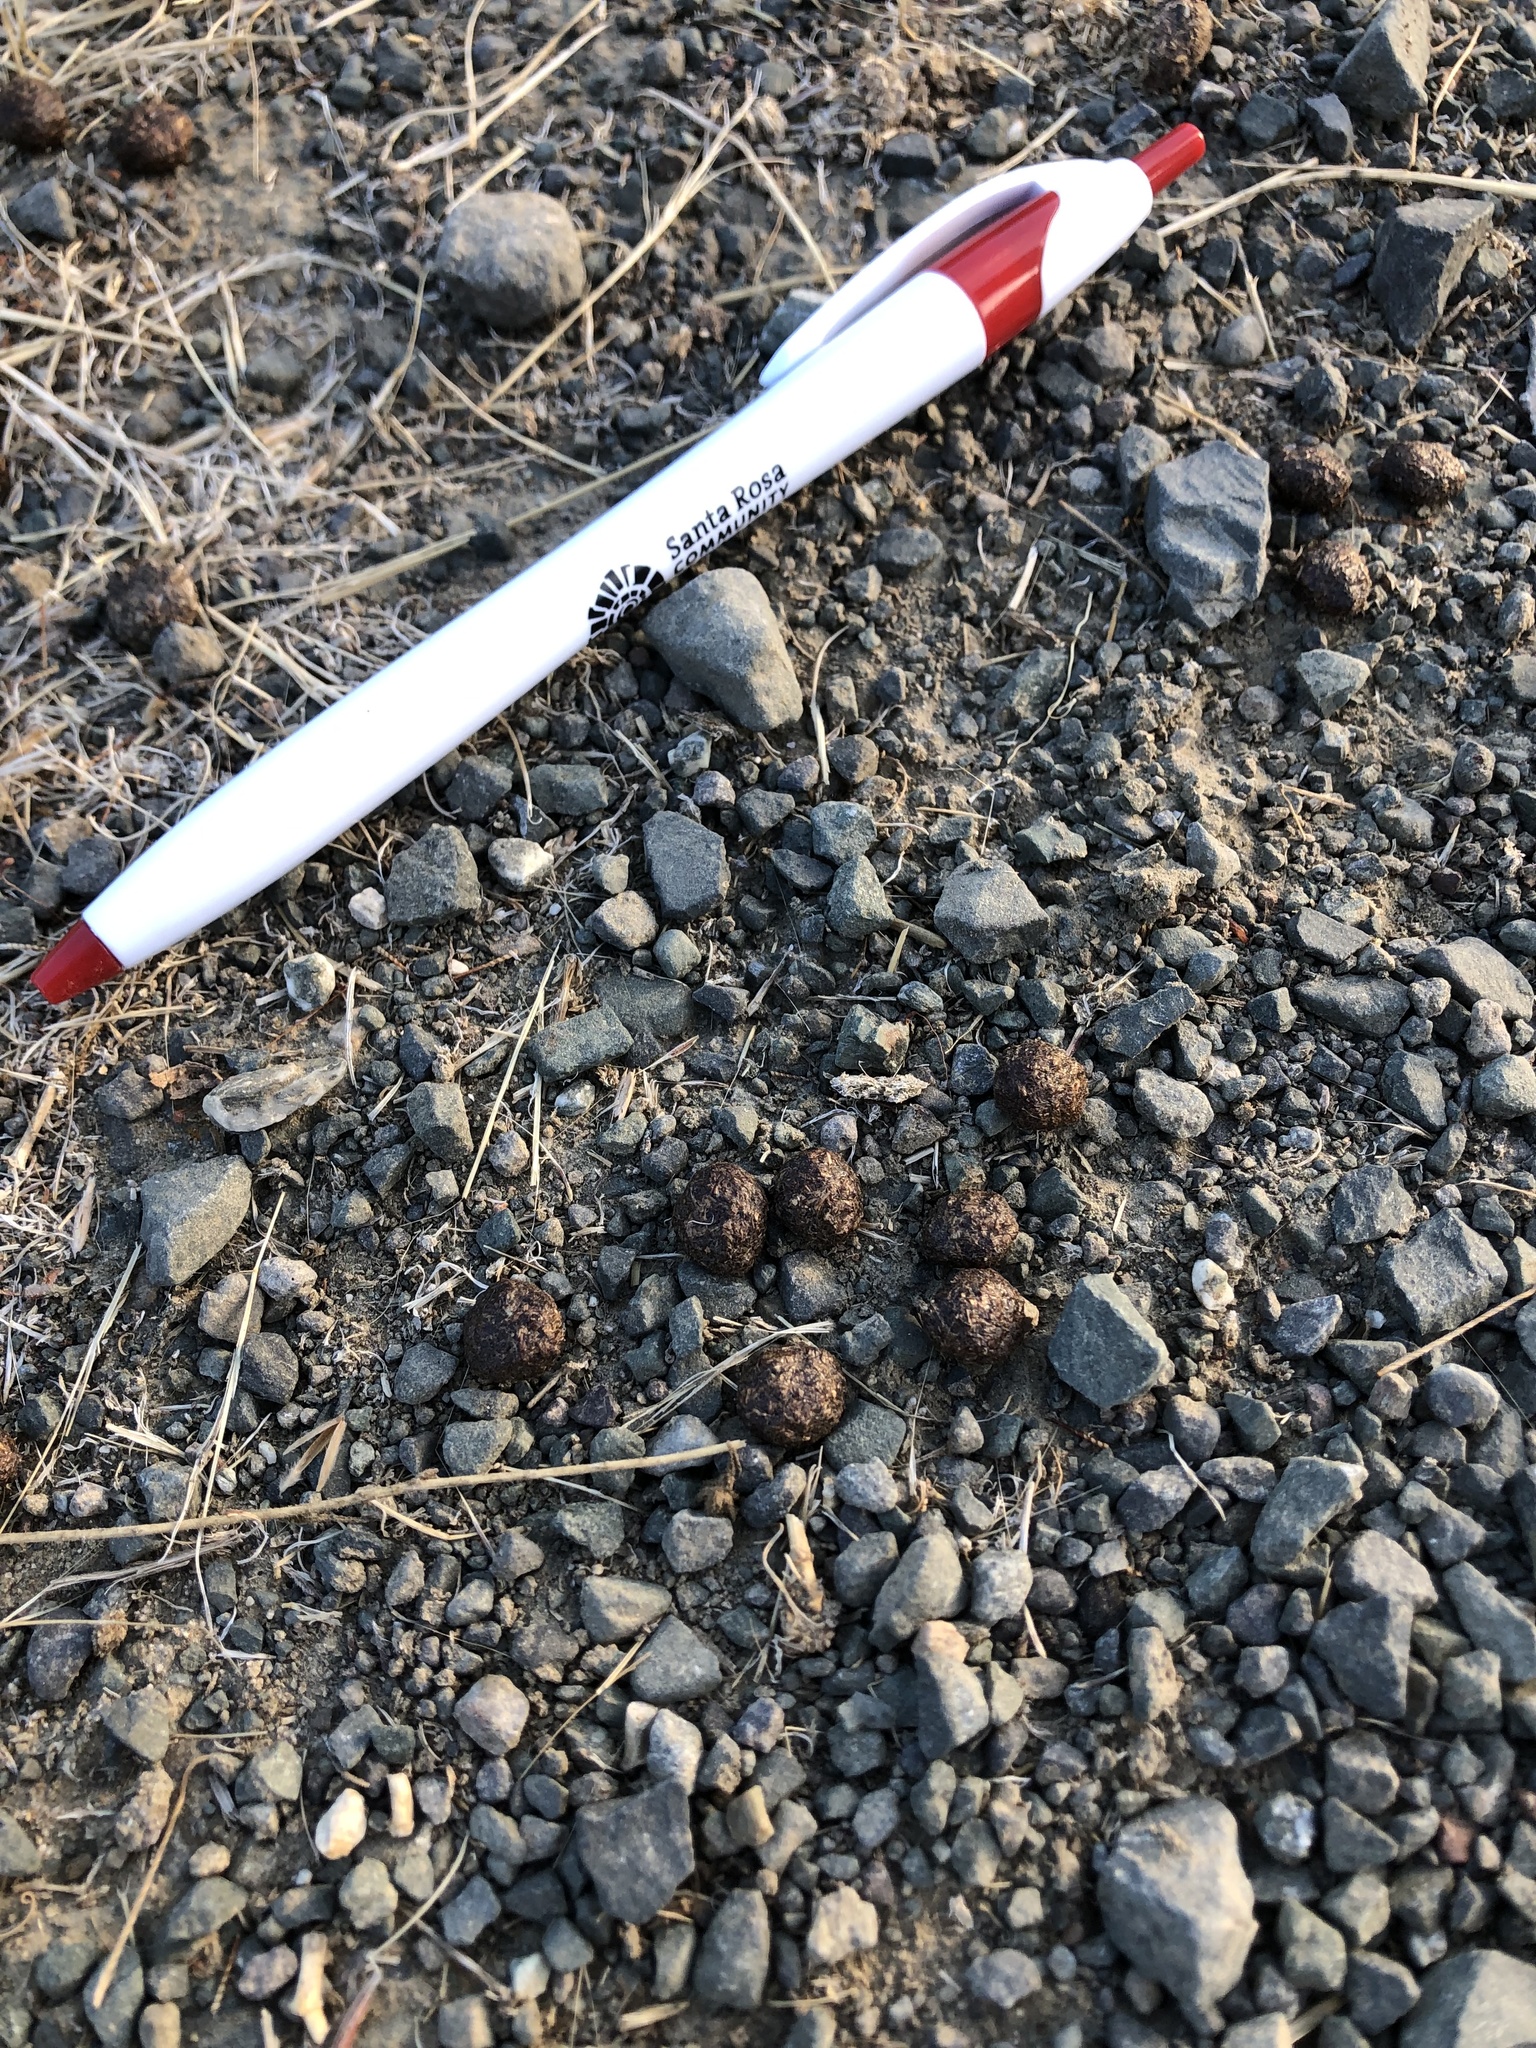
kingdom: Animalia
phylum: Chordata
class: Mammalia
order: Lagomorpha
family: Leporidae
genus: Lepus
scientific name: Lepus californicus
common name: Black-tailed jackrabbit
